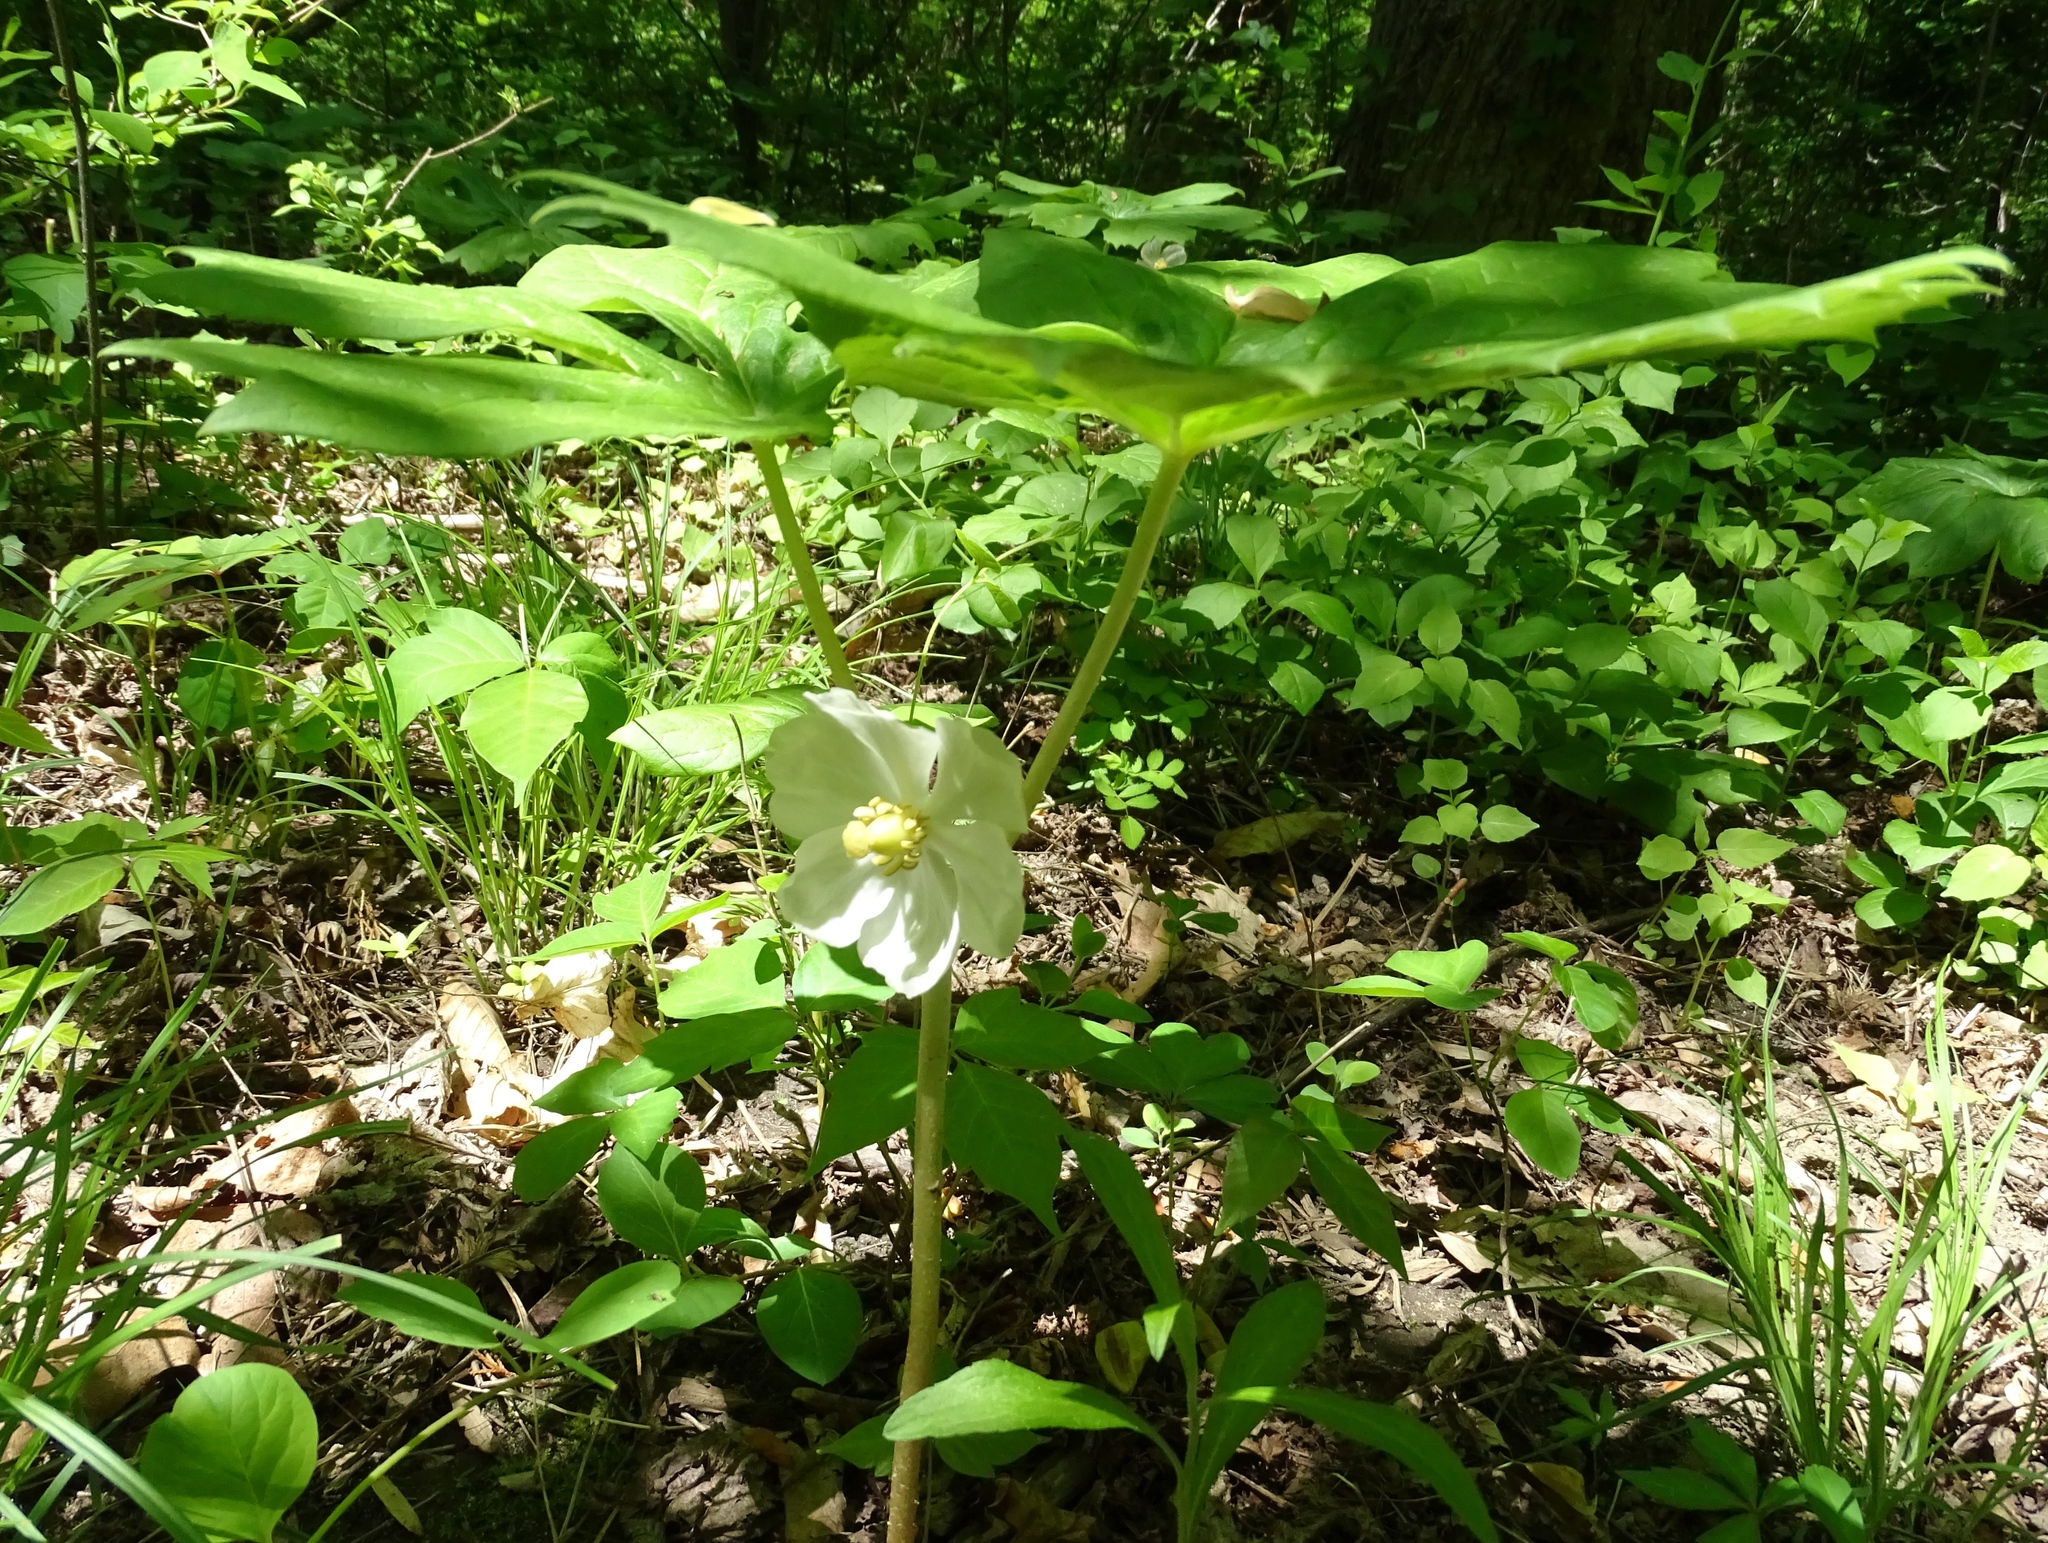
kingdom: Plantae
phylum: Tracheophyta
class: Magnoliopsida
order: Ranunculales
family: Berberidaceae
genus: Podophyllum
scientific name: Podophyllum peltatum
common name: Wild mandrake
